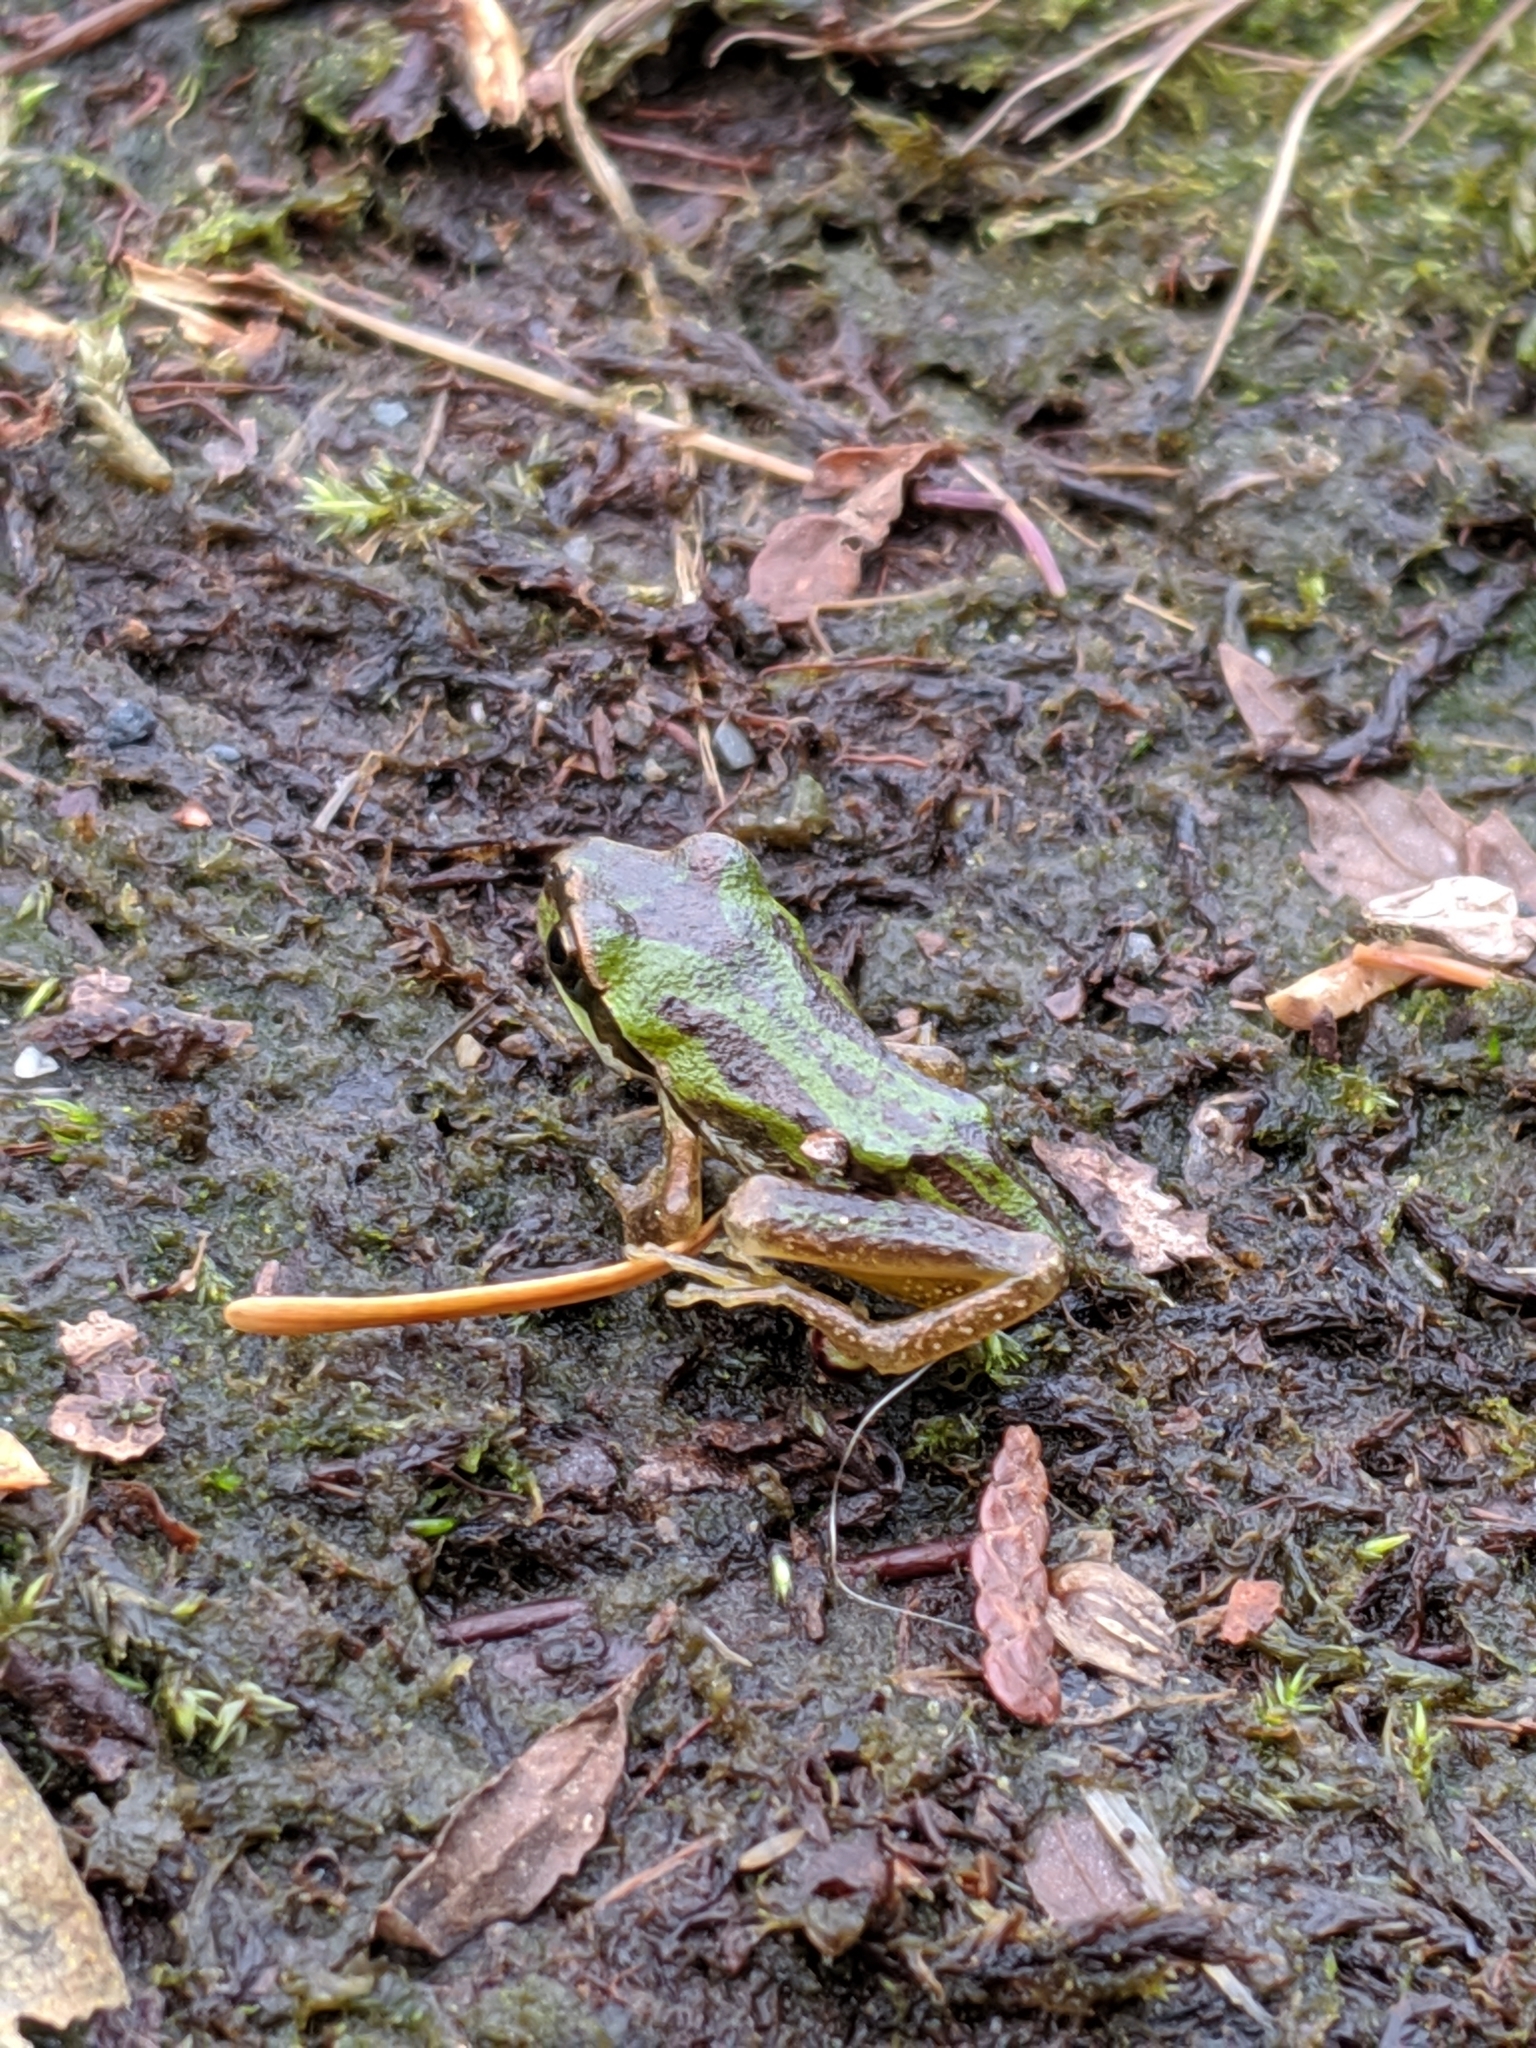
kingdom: Animalia
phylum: Chordata
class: Amphibia
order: Anura
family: Hylidae
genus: Pseudacris
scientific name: Pseudacris regilla
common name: Pacific chorus frog
